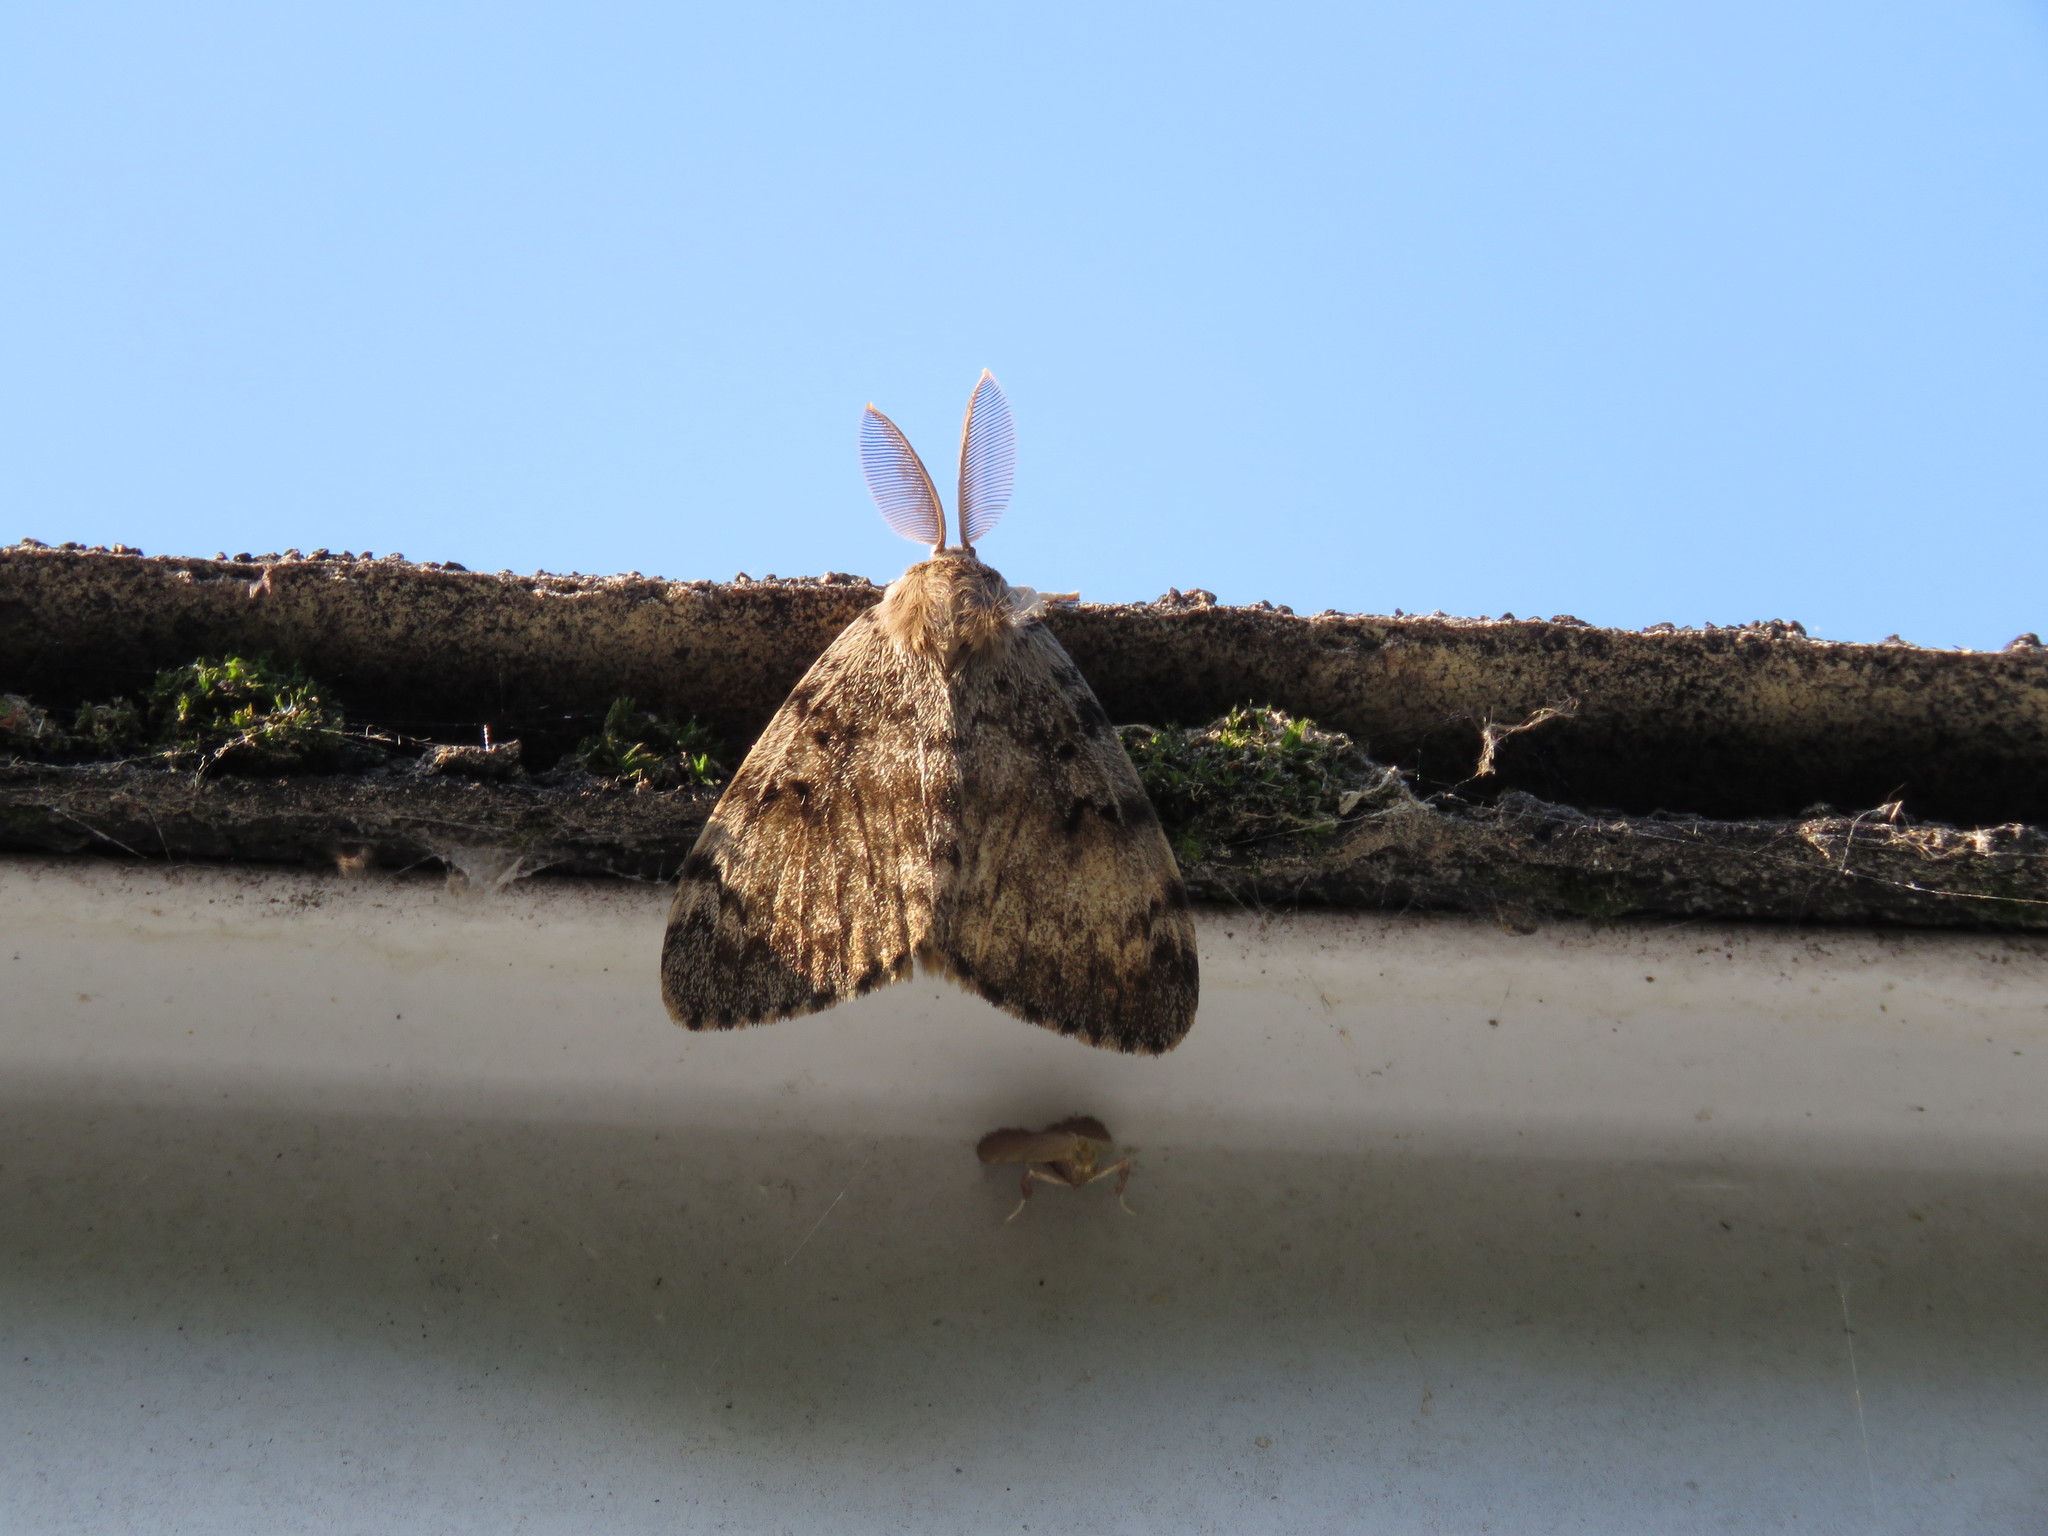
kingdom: Animalia
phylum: Arthropoda
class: Insecta
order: Lepidoptera
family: Erebidae
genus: Lymantria
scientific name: Lymantria dispar
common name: Gypsy moth
